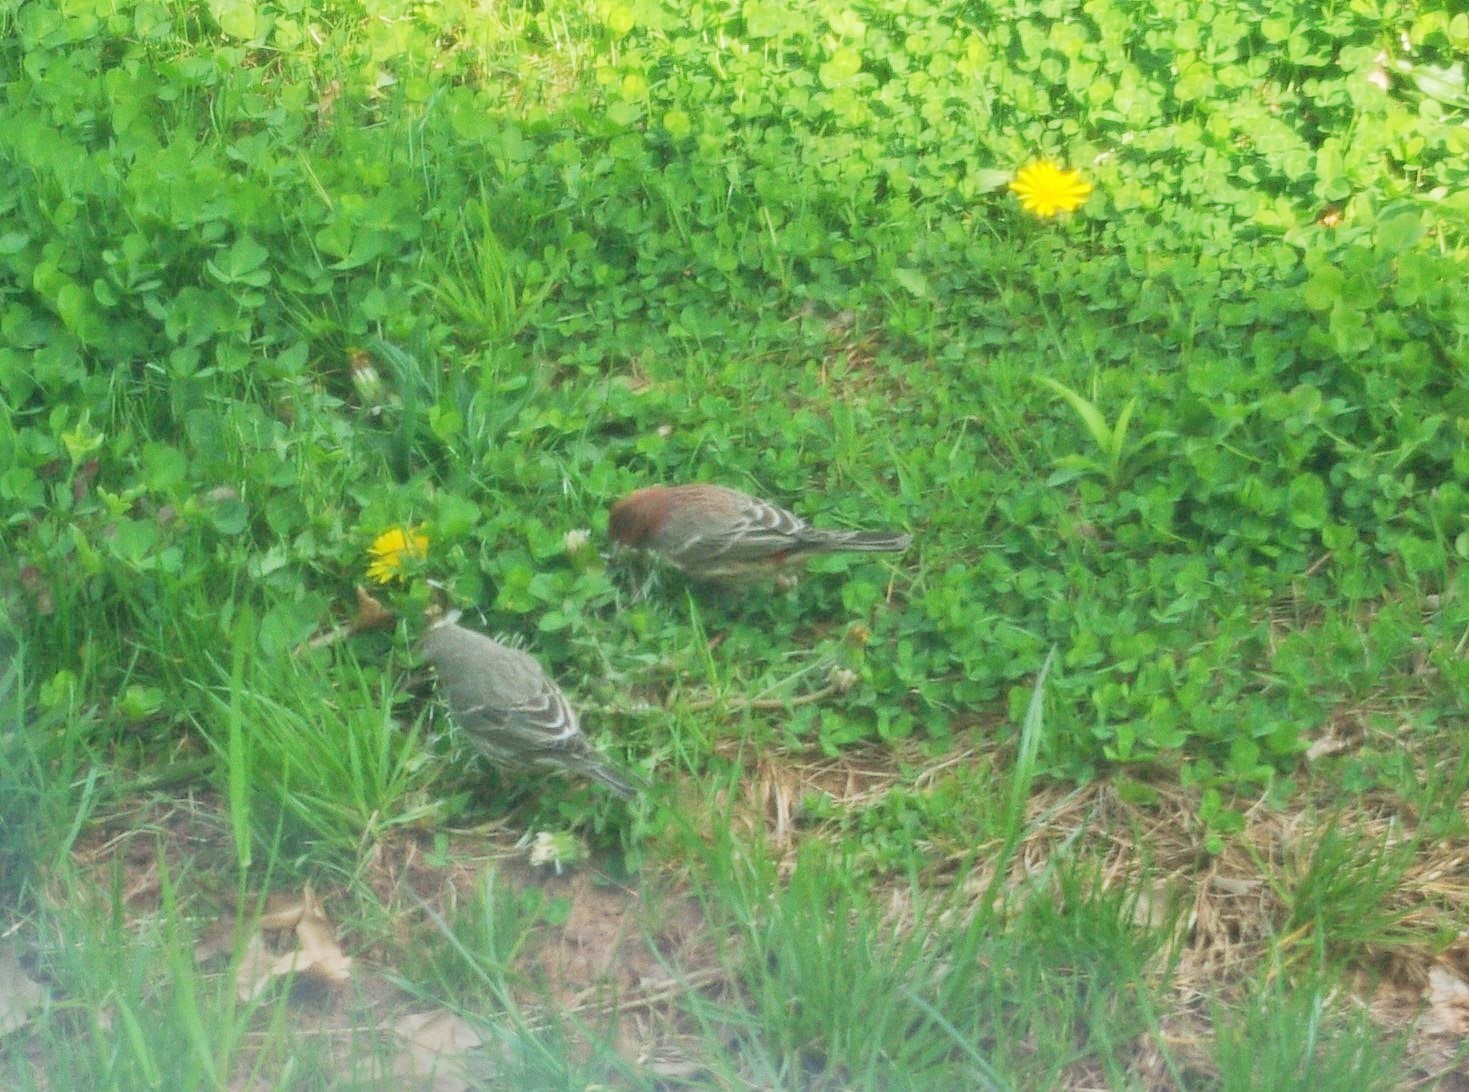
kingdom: Animalia
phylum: Chordata
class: Aves
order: Passeriformes
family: Fringillidae
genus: Haemorhous
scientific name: Haemorhous mexicanus
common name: House finch
